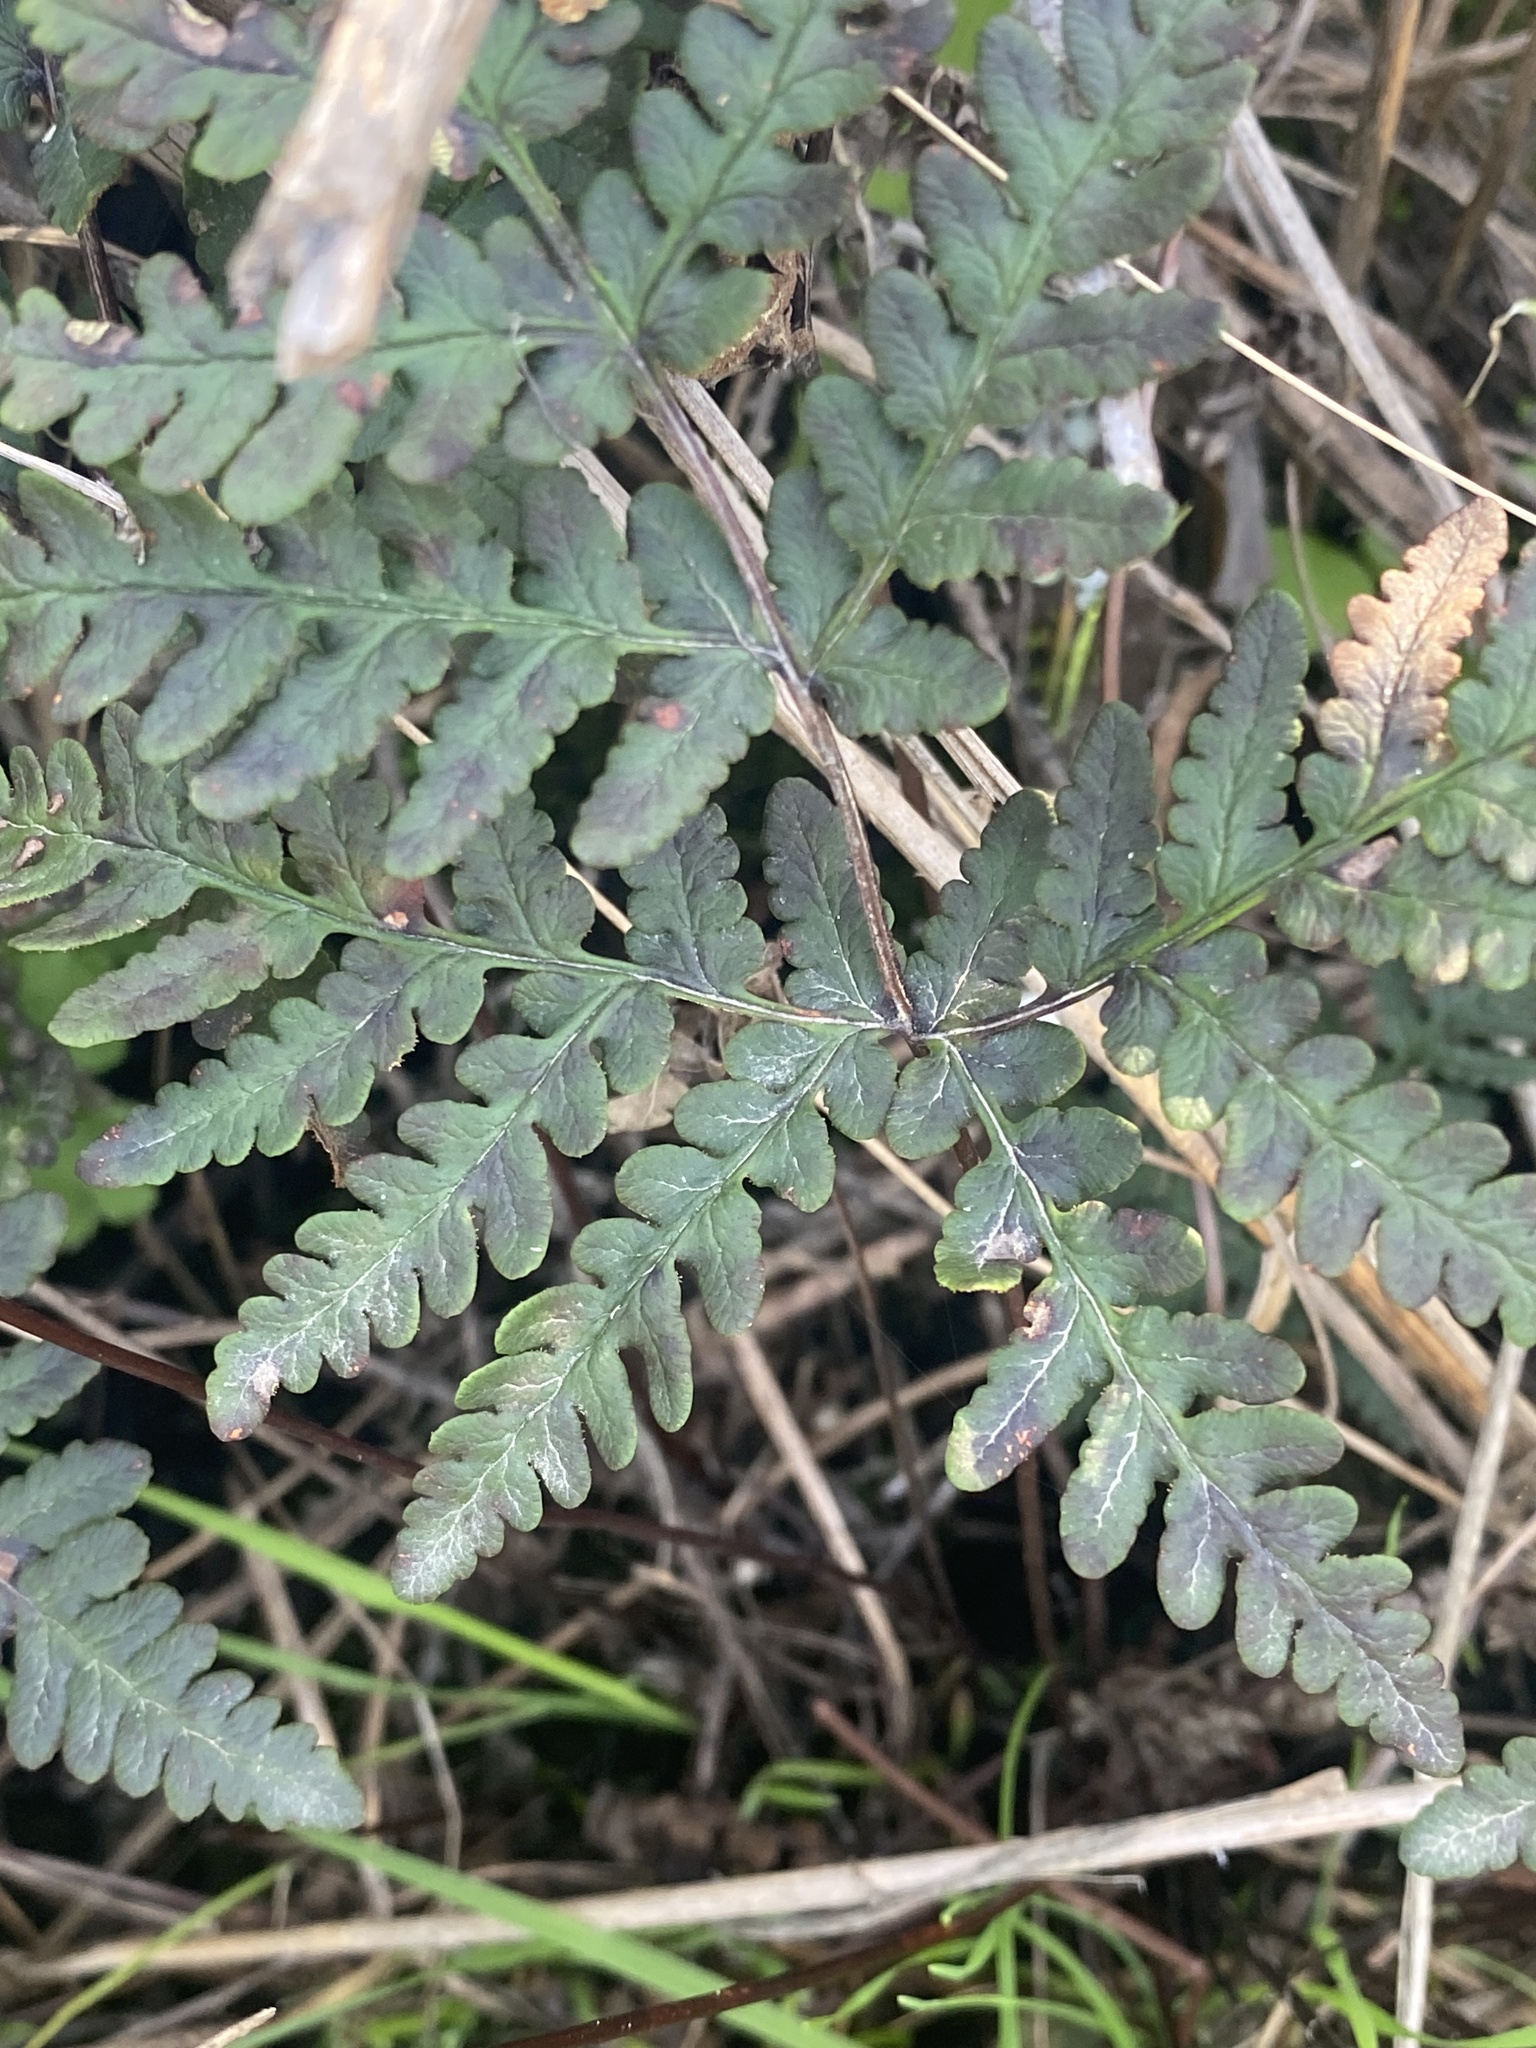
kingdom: Plantae
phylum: Tracheophyta
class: Polypodiopsida
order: Polypodiales
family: Pteridaceae
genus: Pentagramma
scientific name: Pentagramma triangularis
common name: Gold fern
